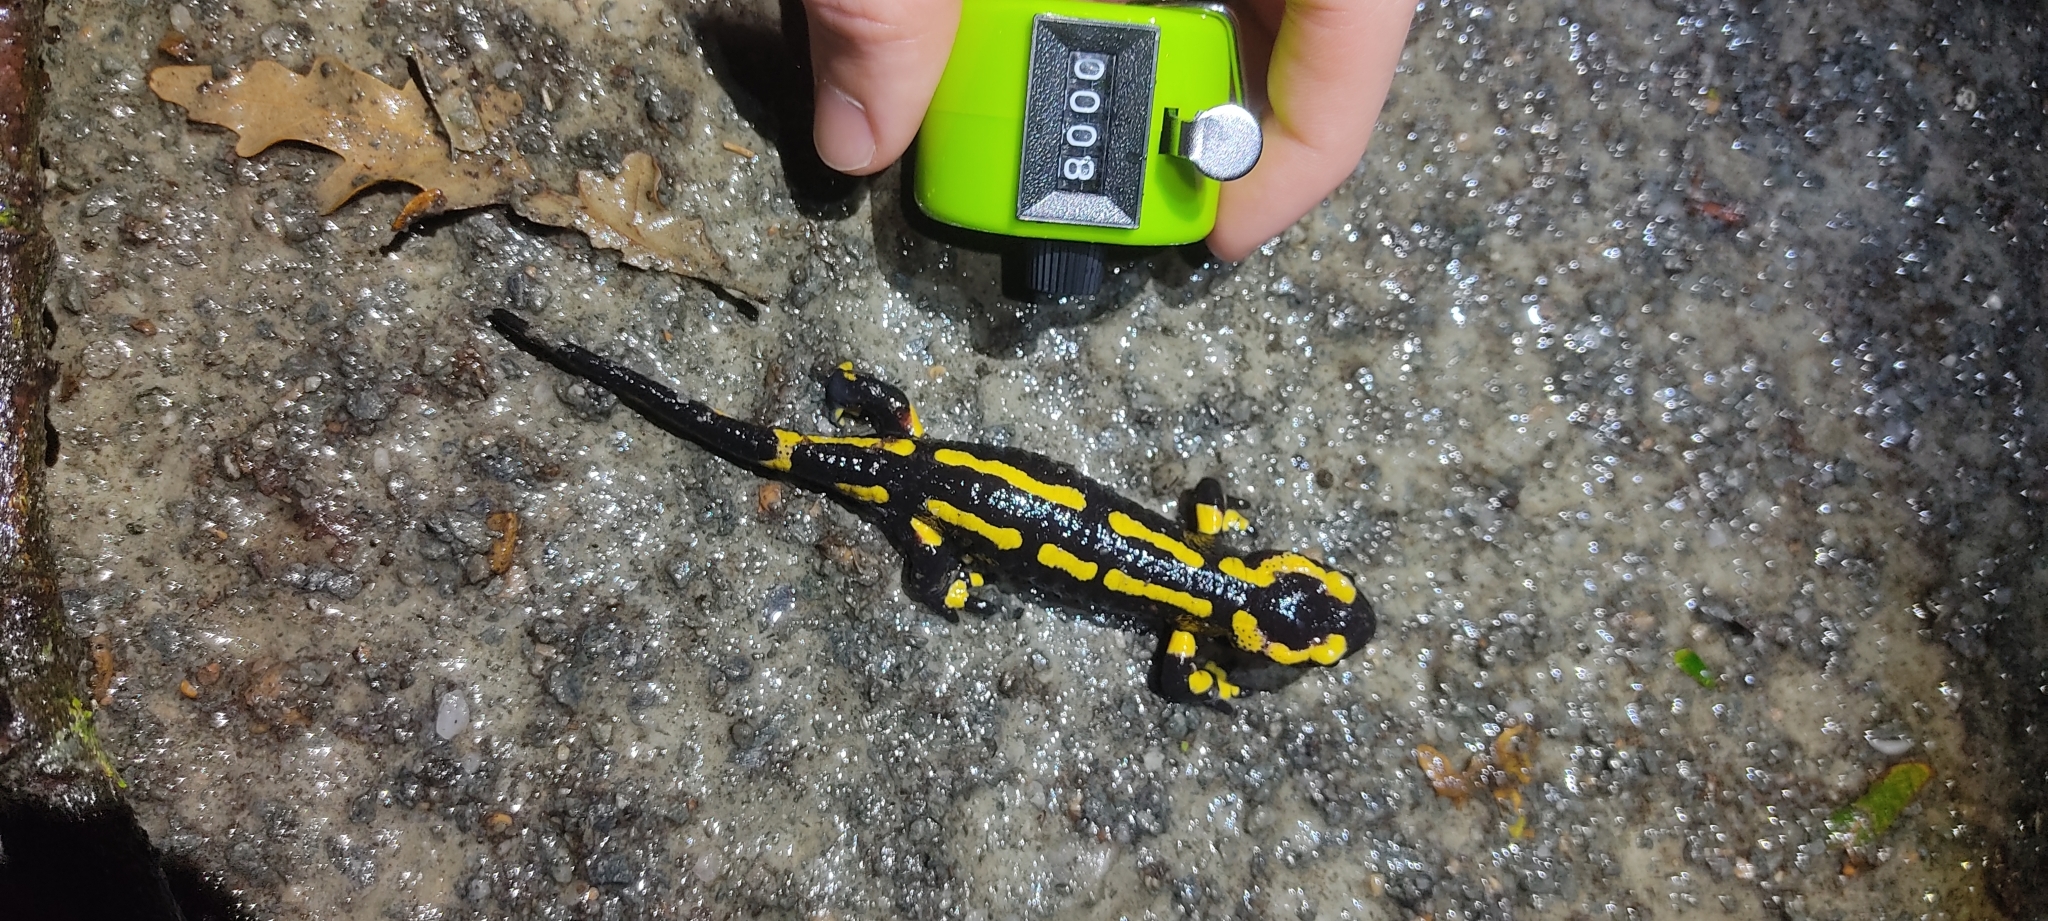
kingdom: Animalia
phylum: Chordata
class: Amphibia
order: Caudata
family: Salamandridae
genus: Salamandra
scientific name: Salamandra salamandra
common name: Fire salamander
